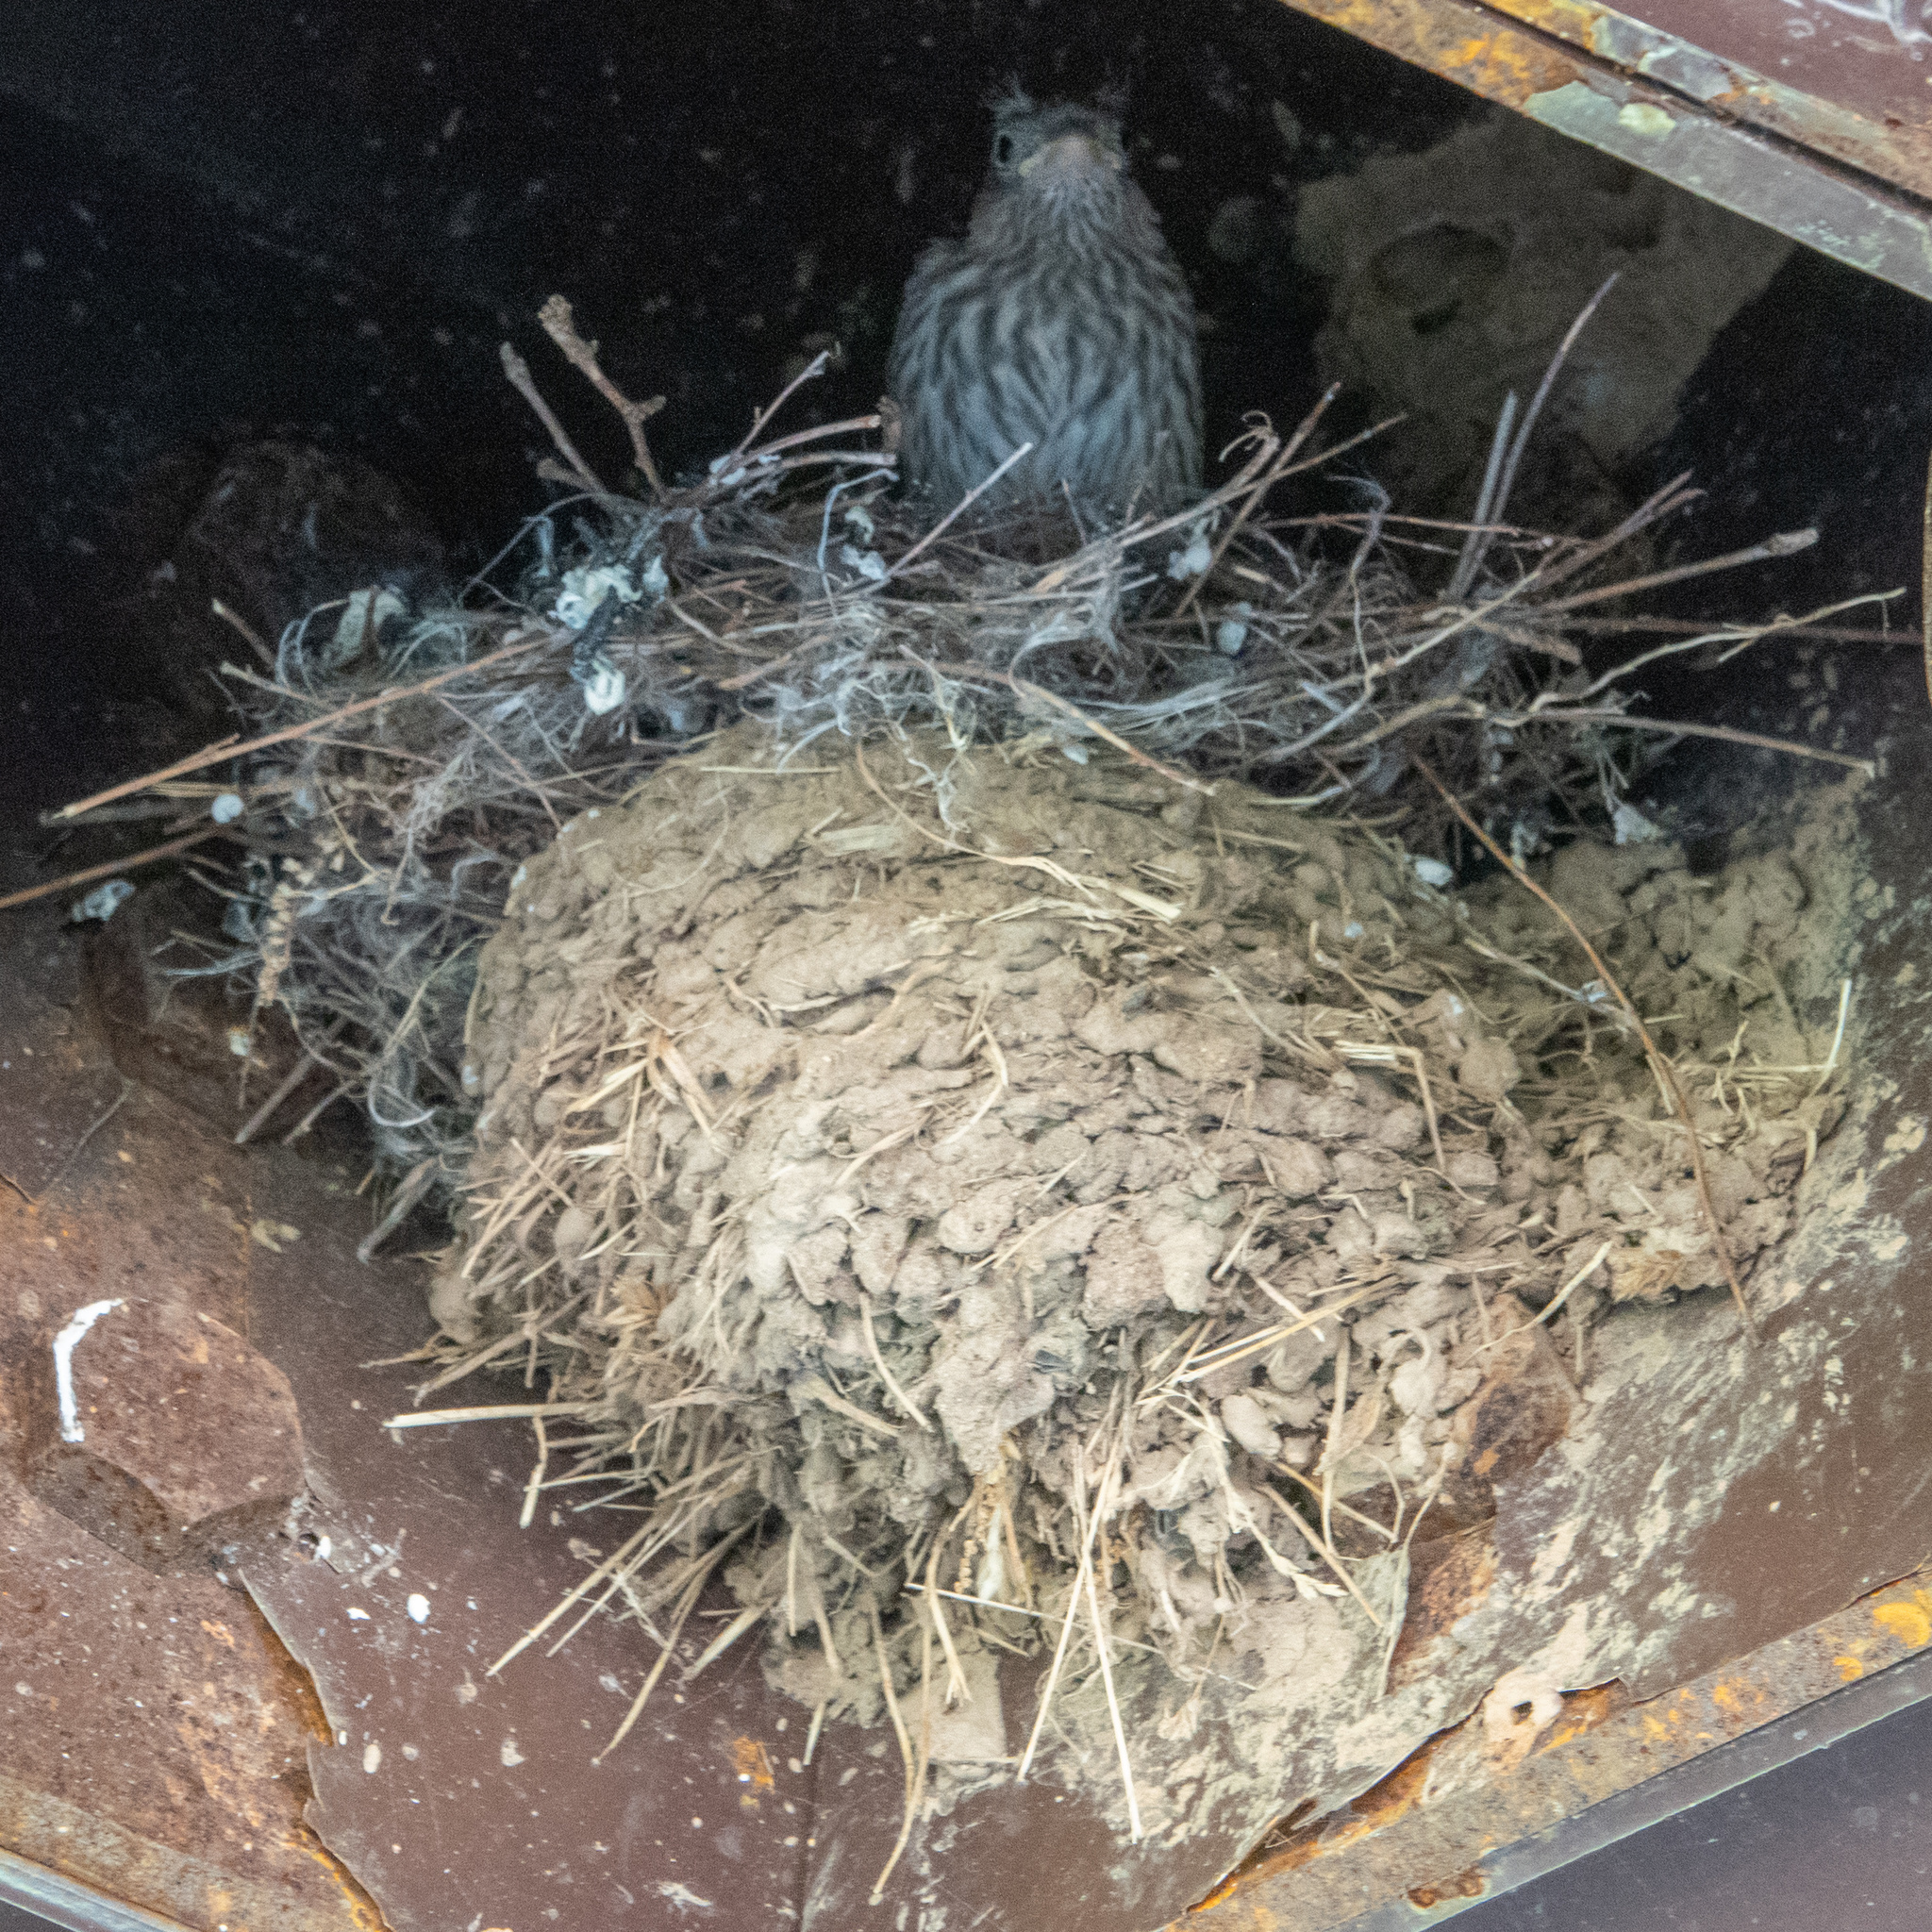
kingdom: Animalia
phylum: Chordata
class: Aves
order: Passeriformes
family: Fringillidae
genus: Haemorhous
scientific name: Haemorhous mexicanus
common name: House finch
